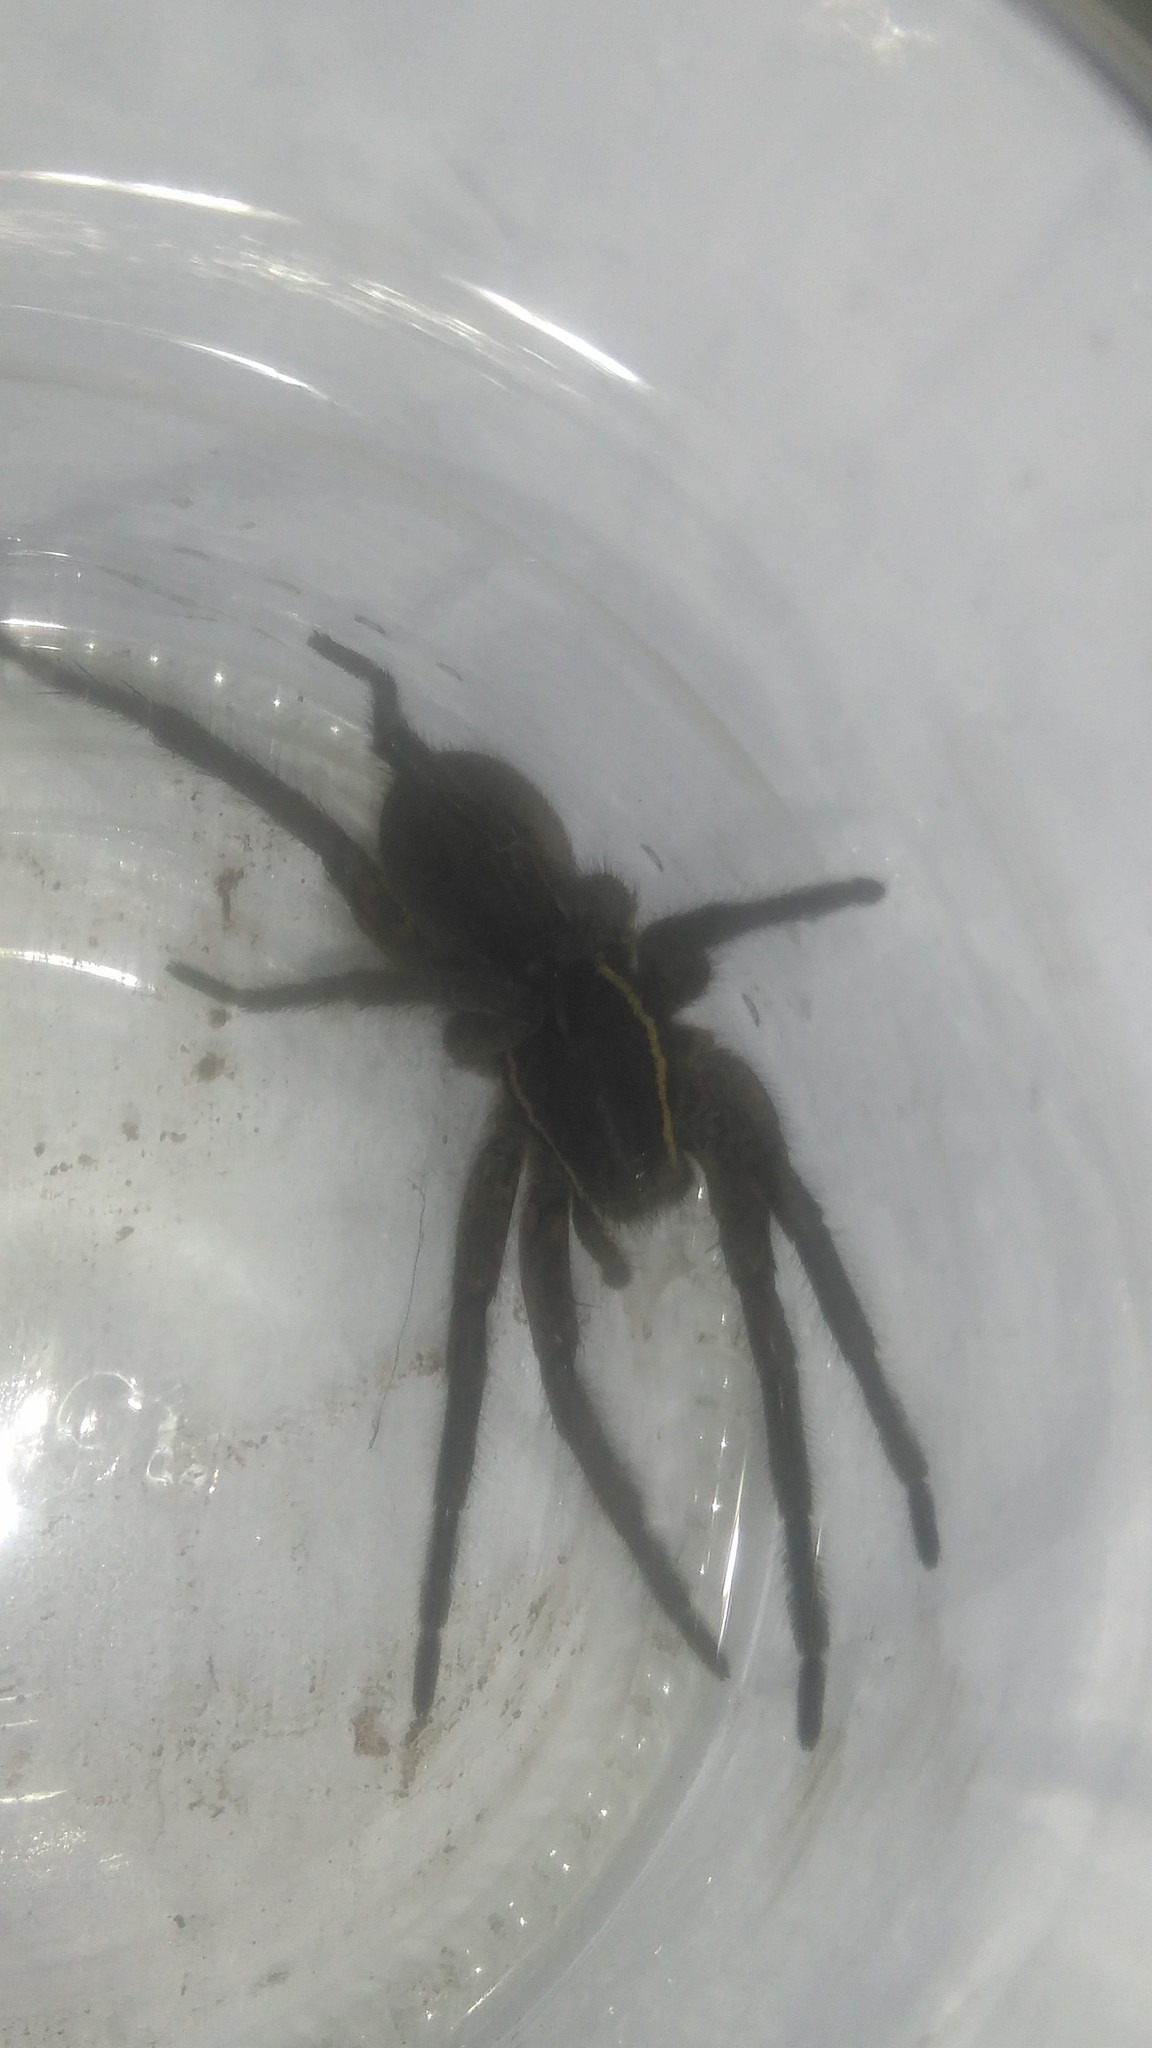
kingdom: Animalia
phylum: Arthropoda
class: Arachnida
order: Araneae
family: Lycosidae
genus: Aglaoctenus
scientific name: Aglaoctenus oblongus
